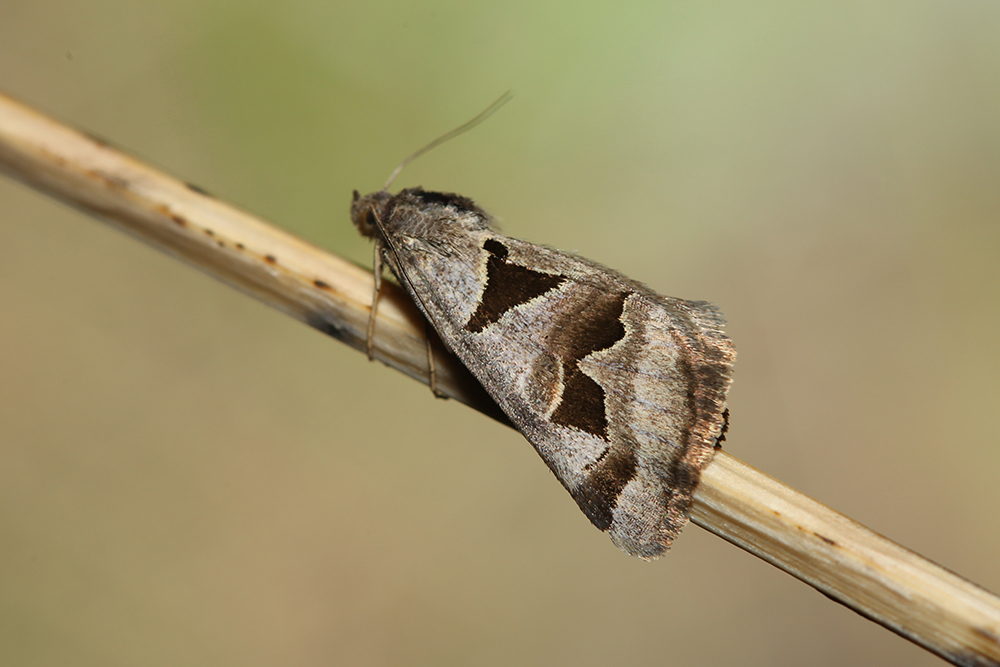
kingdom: Animalia
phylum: Arthropoda
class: Insecta
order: Lepidoptera
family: Erebidae
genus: Euclidia
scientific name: Euclidia triquetra
